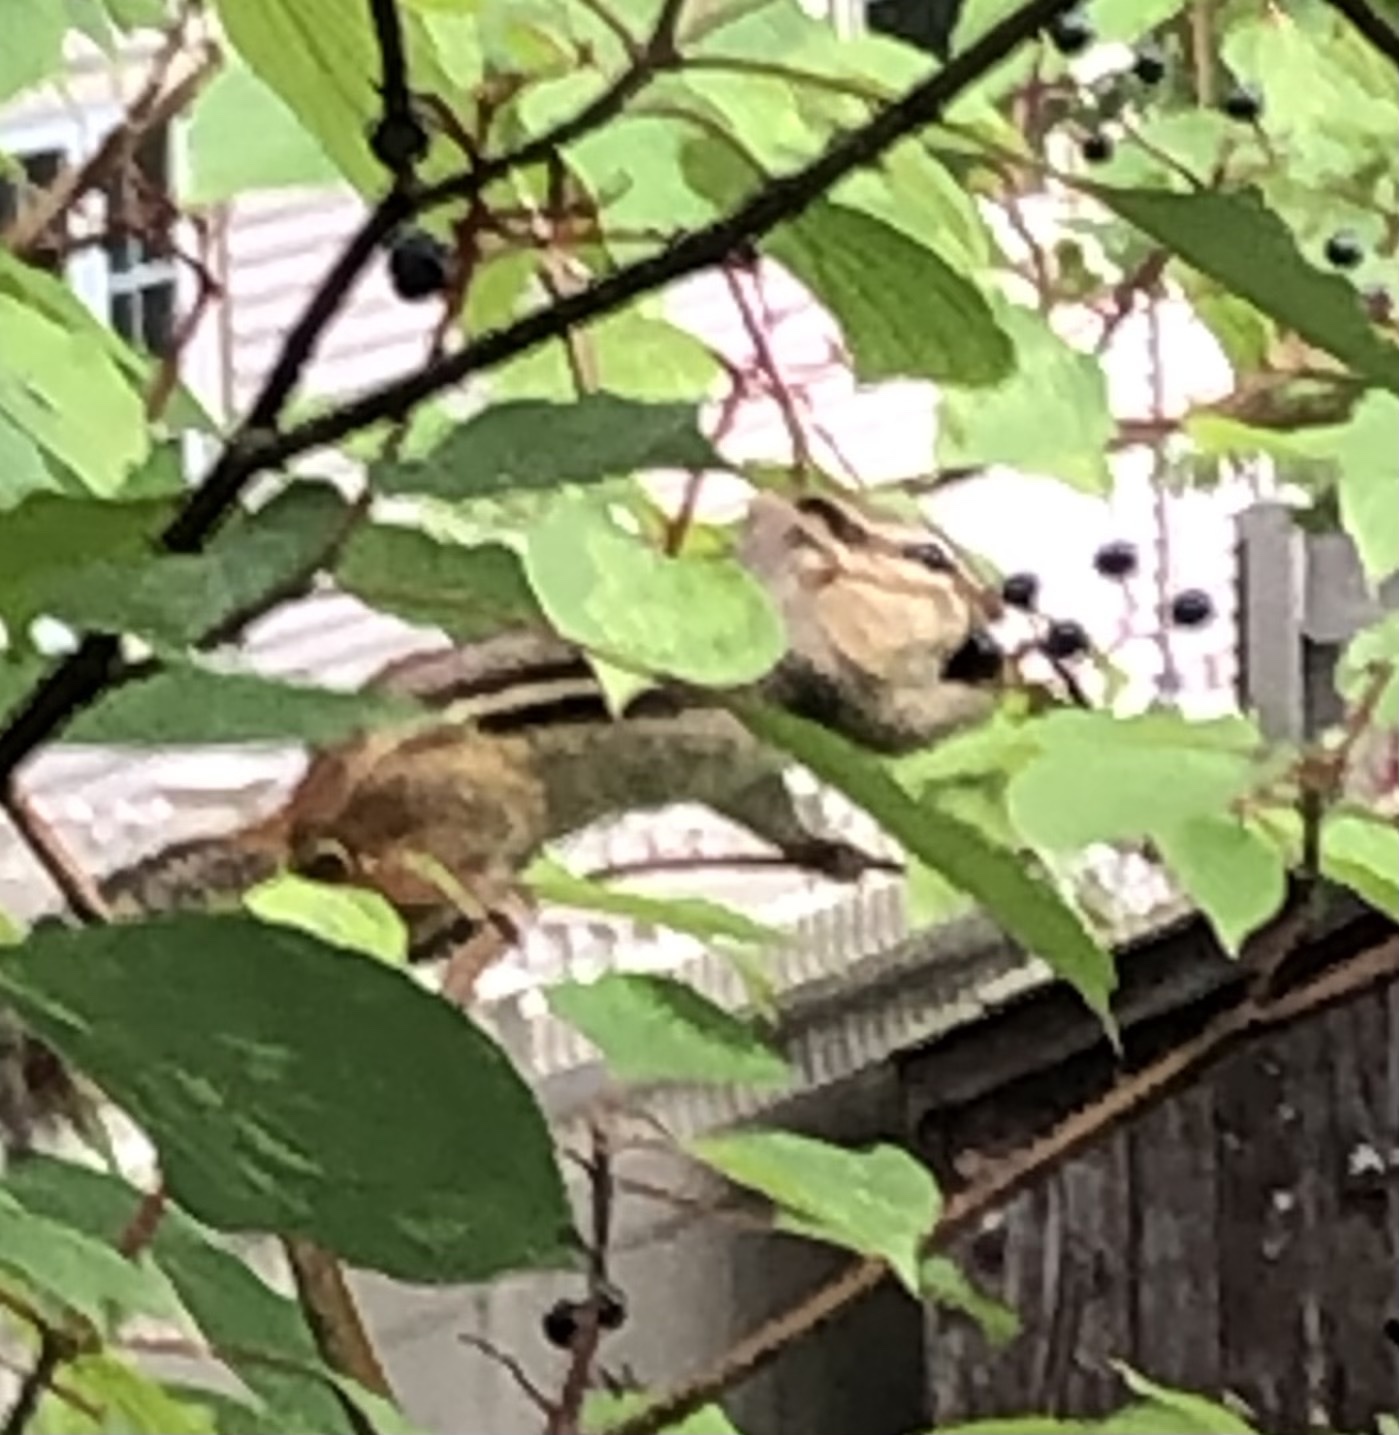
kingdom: Animalia
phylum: Chordata
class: Mammalia
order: Rodentia
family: Sciuridae
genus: Tamias
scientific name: Tamias striatus
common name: Eastern chipmunk
